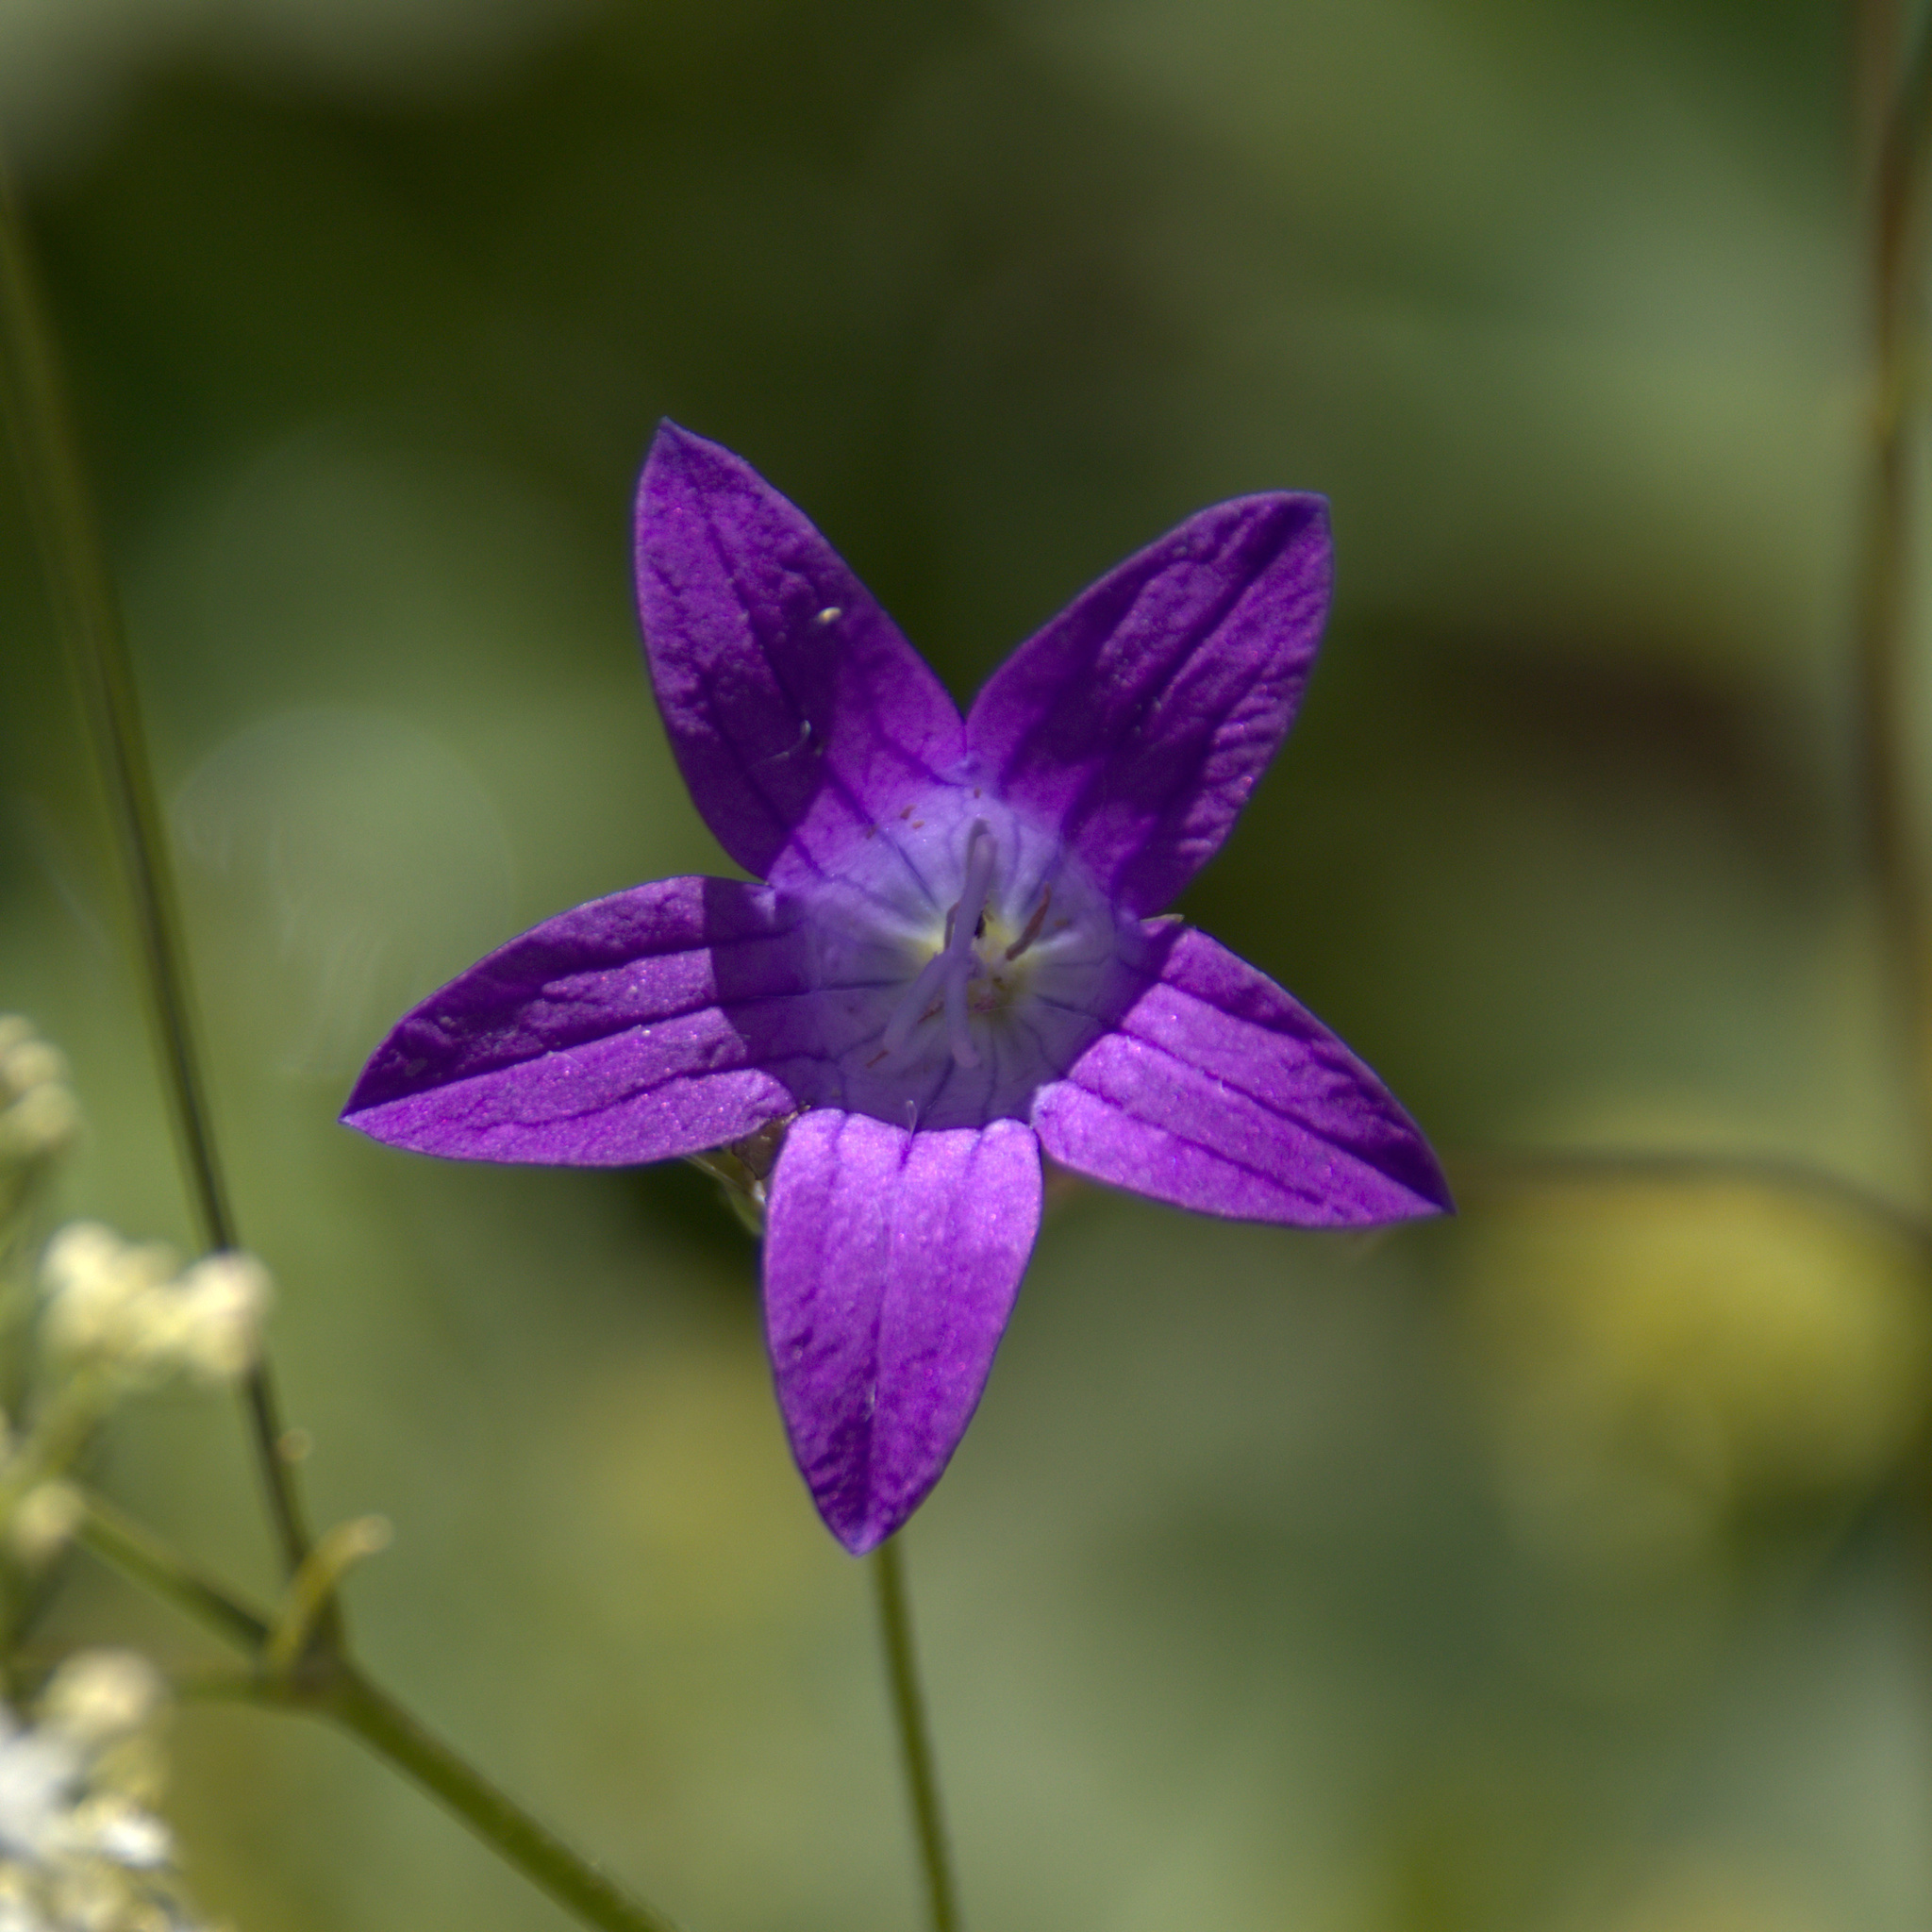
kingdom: Plantae
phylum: Tracheophyta
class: Magnoliopsida
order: Asterales
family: Campanulaceae
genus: Campanula
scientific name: Campanula patula
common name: Spreading bellflower
